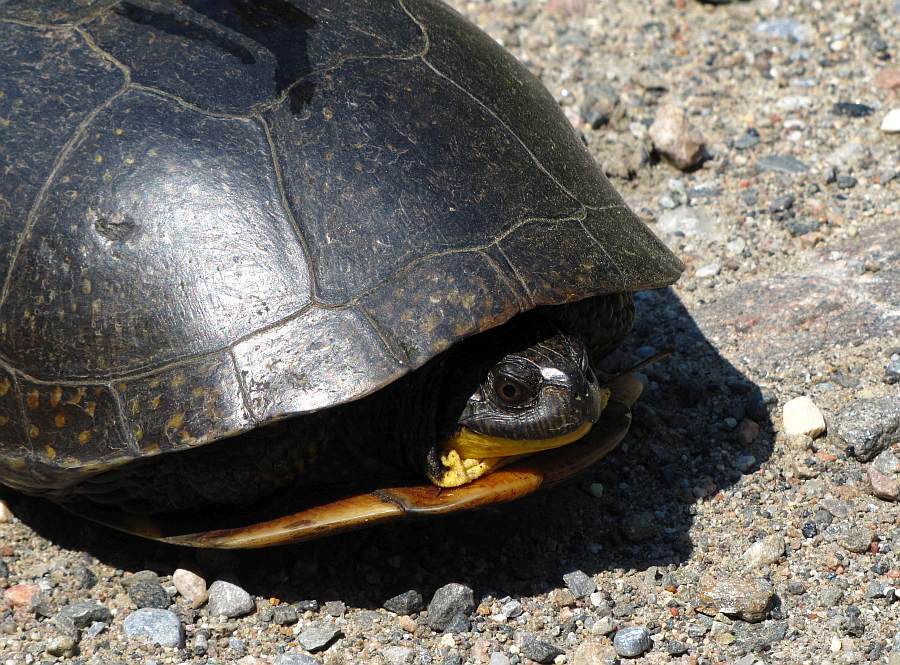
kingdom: Animalia
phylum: Chordata
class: Testudines
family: Emydidae
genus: Emys
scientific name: Emys blandingii
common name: Blanding's turtle
